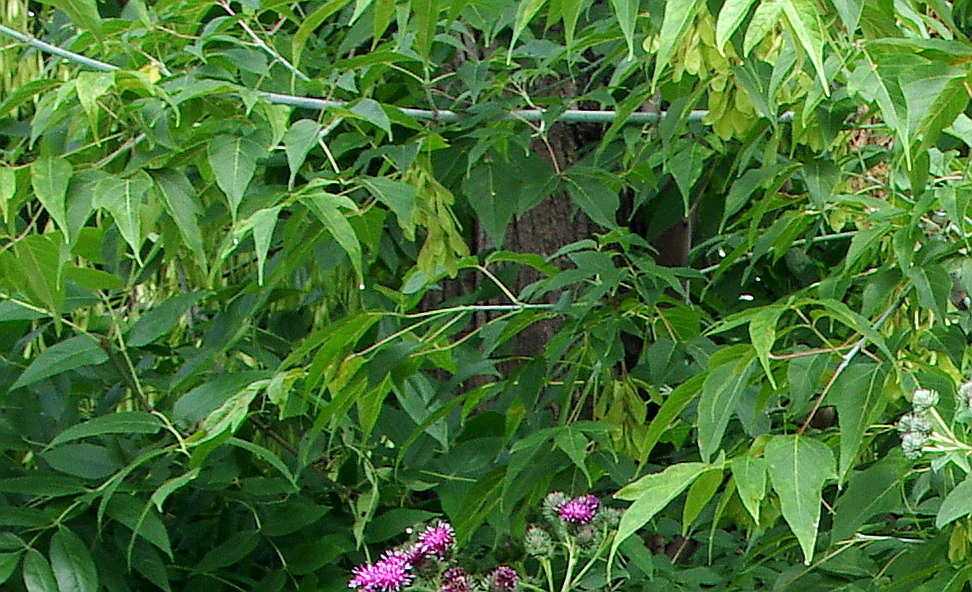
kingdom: Plantae
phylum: Tracheophyta
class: Magnoliopsida
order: Sapindales
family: Sapindaceae
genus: Acer
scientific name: Acer negundo
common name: Ashleaf maple
